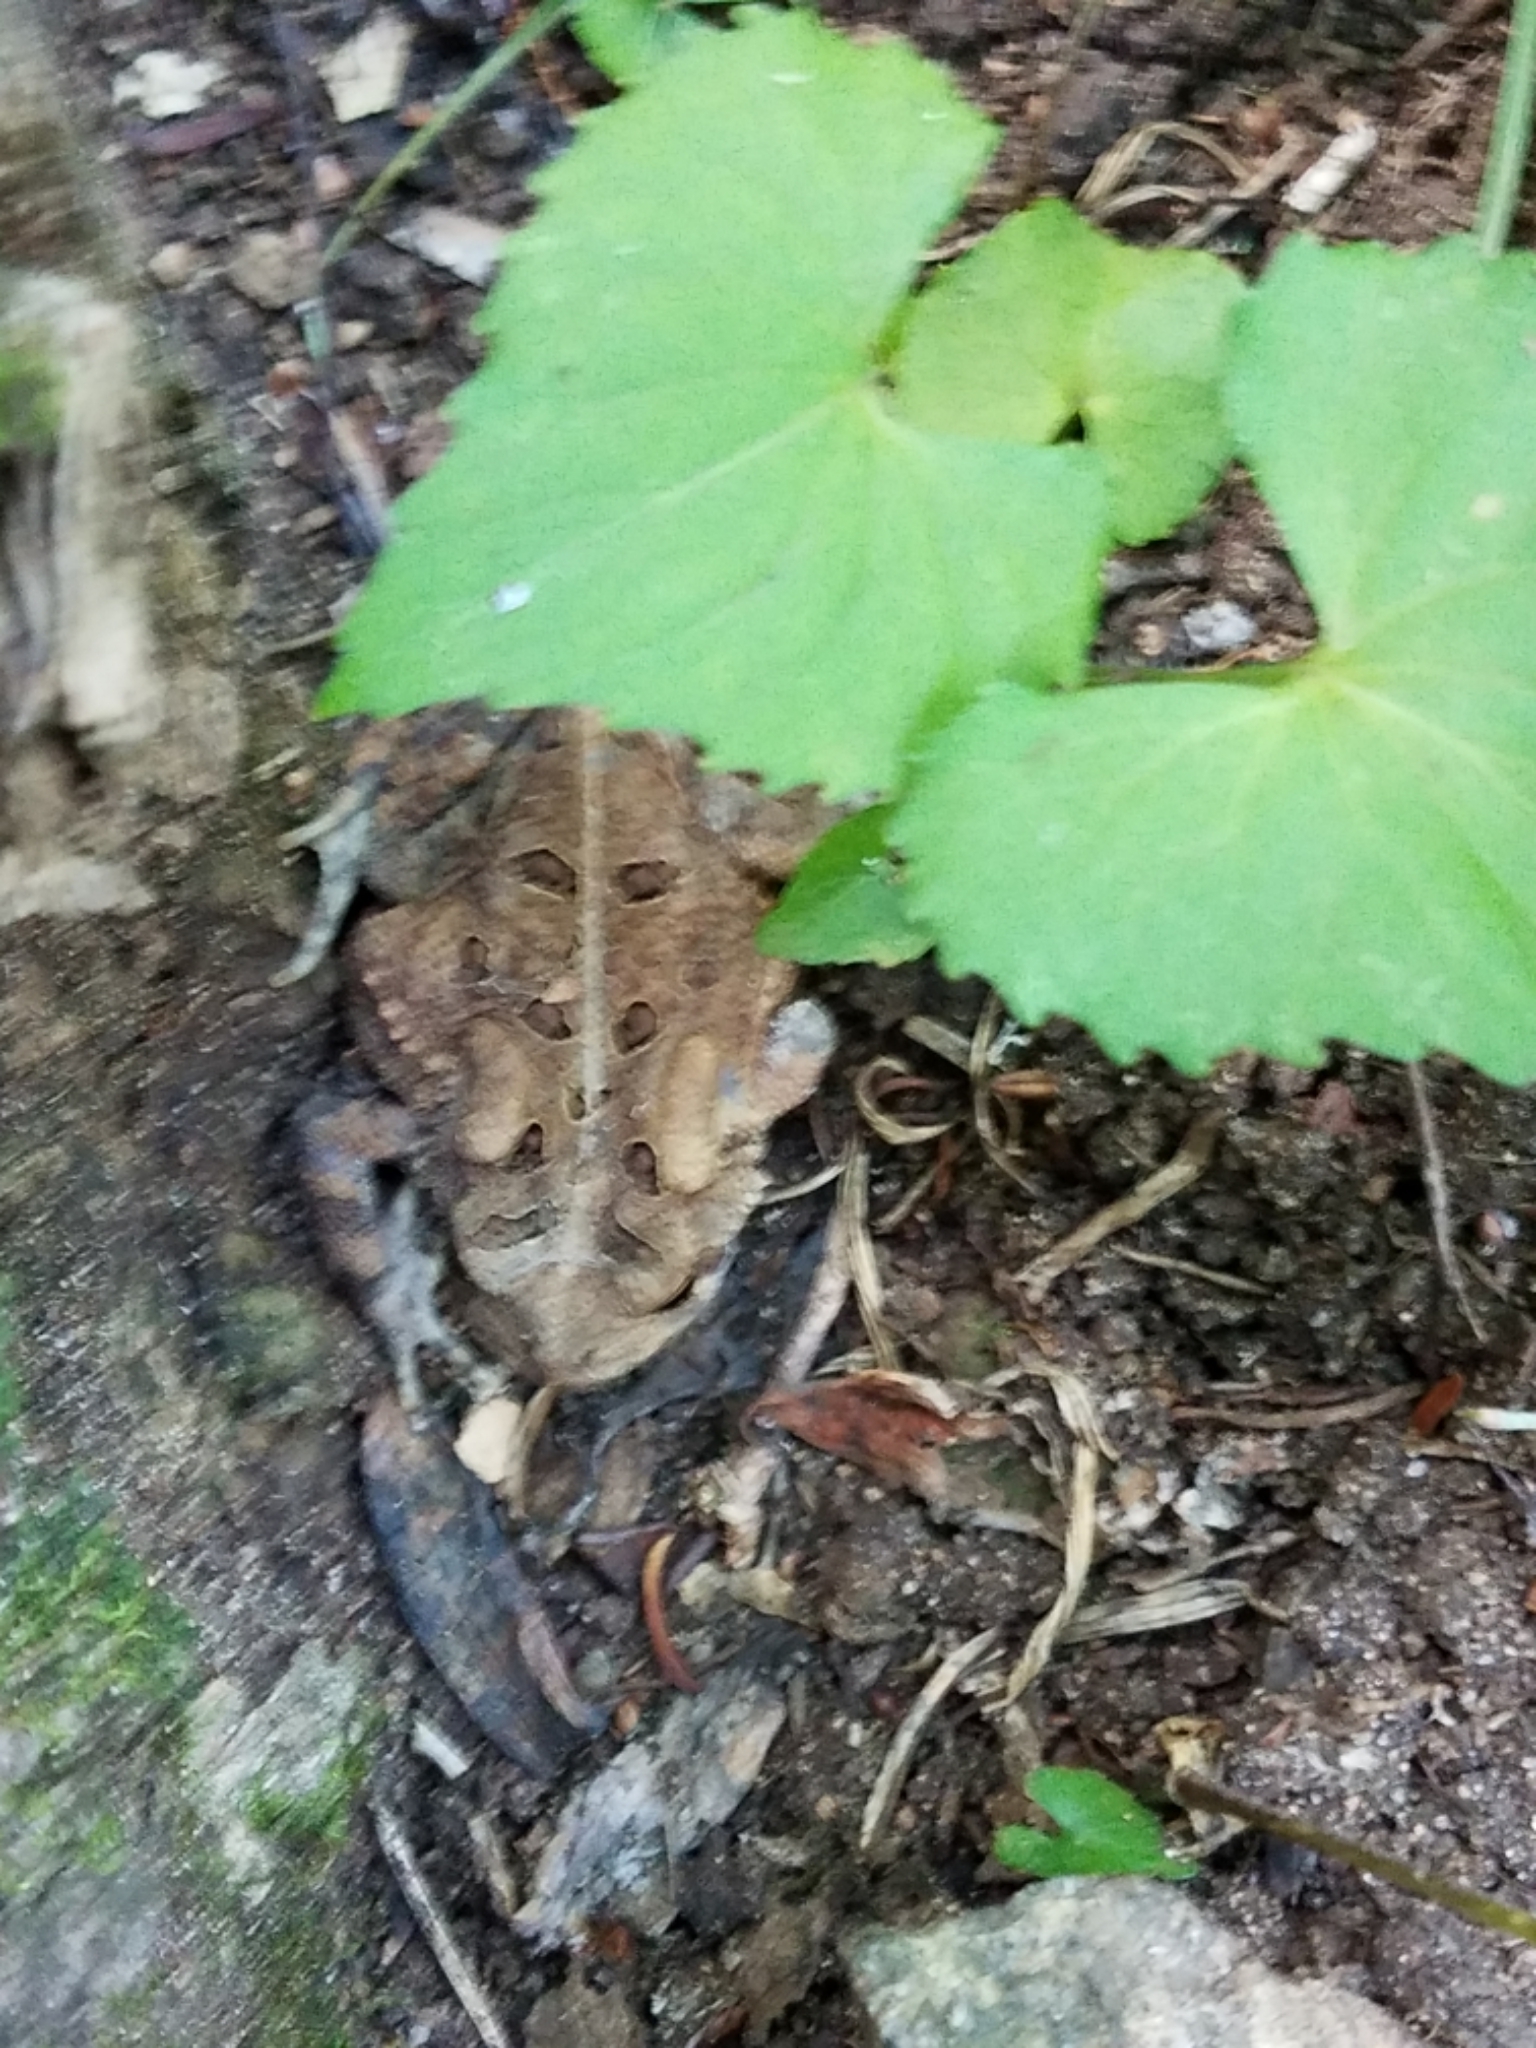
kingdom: Animalia
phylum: Chordata
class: Amphibia
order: Anura
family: Bufonidae
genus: Anaxyrus
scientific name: Anaxyrus americanus
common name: American toad
